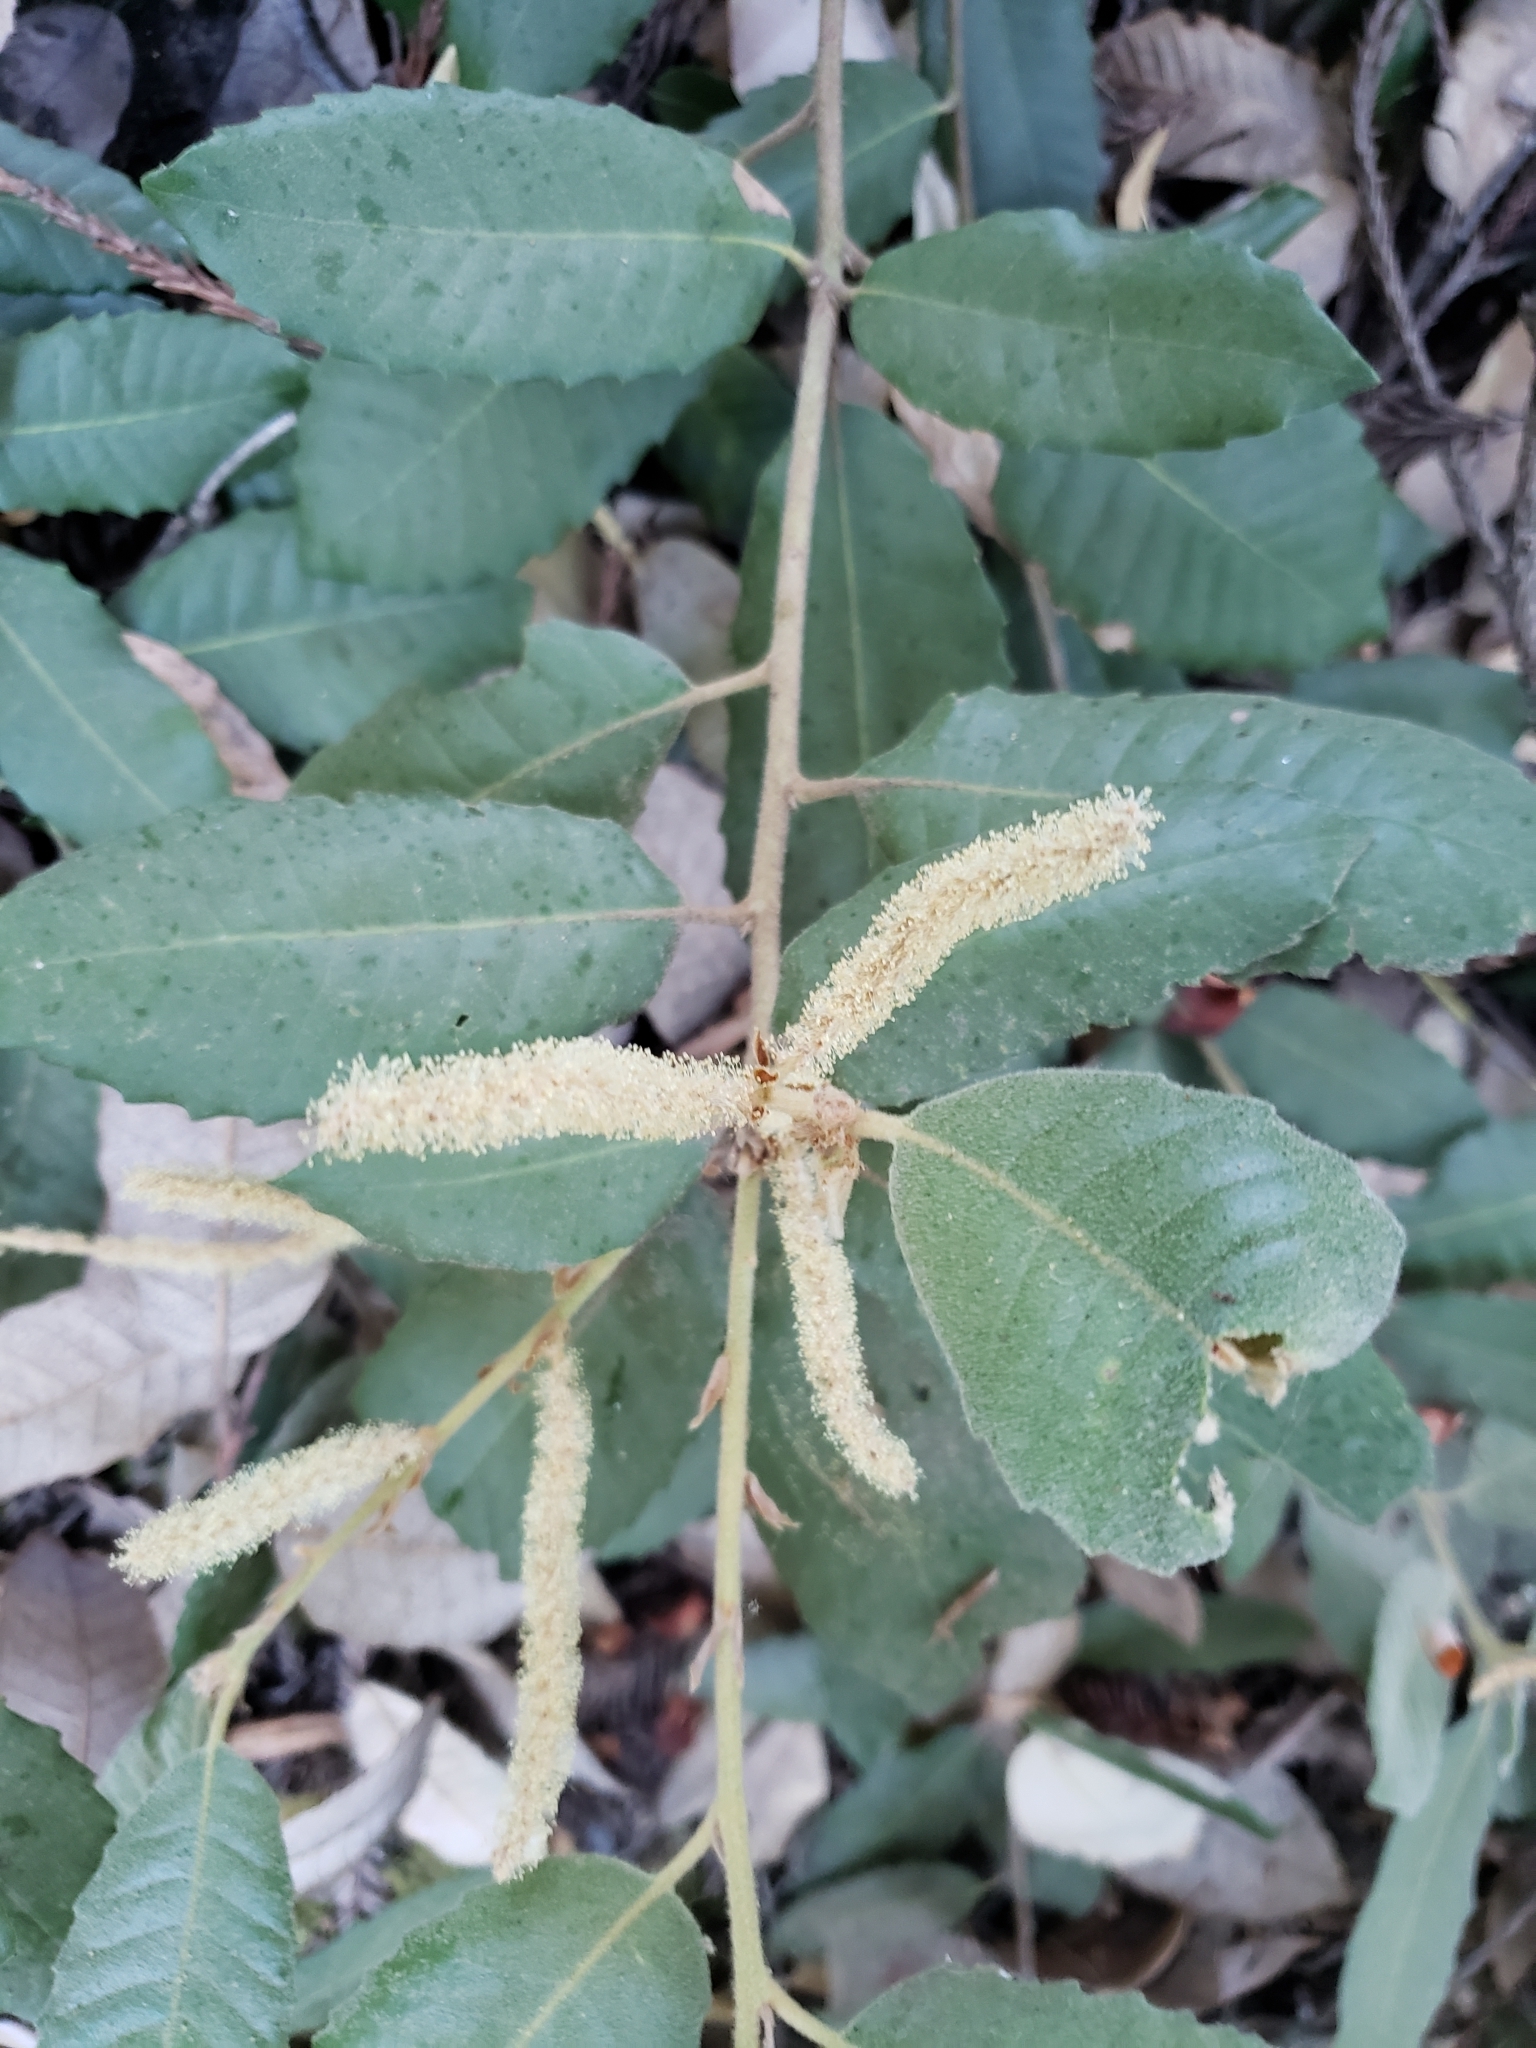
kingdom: Plantae
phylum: Tracheophyta
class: Magnoliopsida
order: Fagales
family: Fagaceae
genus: Notholithocarpus
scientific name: Notholithocarpus densiflorus
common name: Tan bark oak
